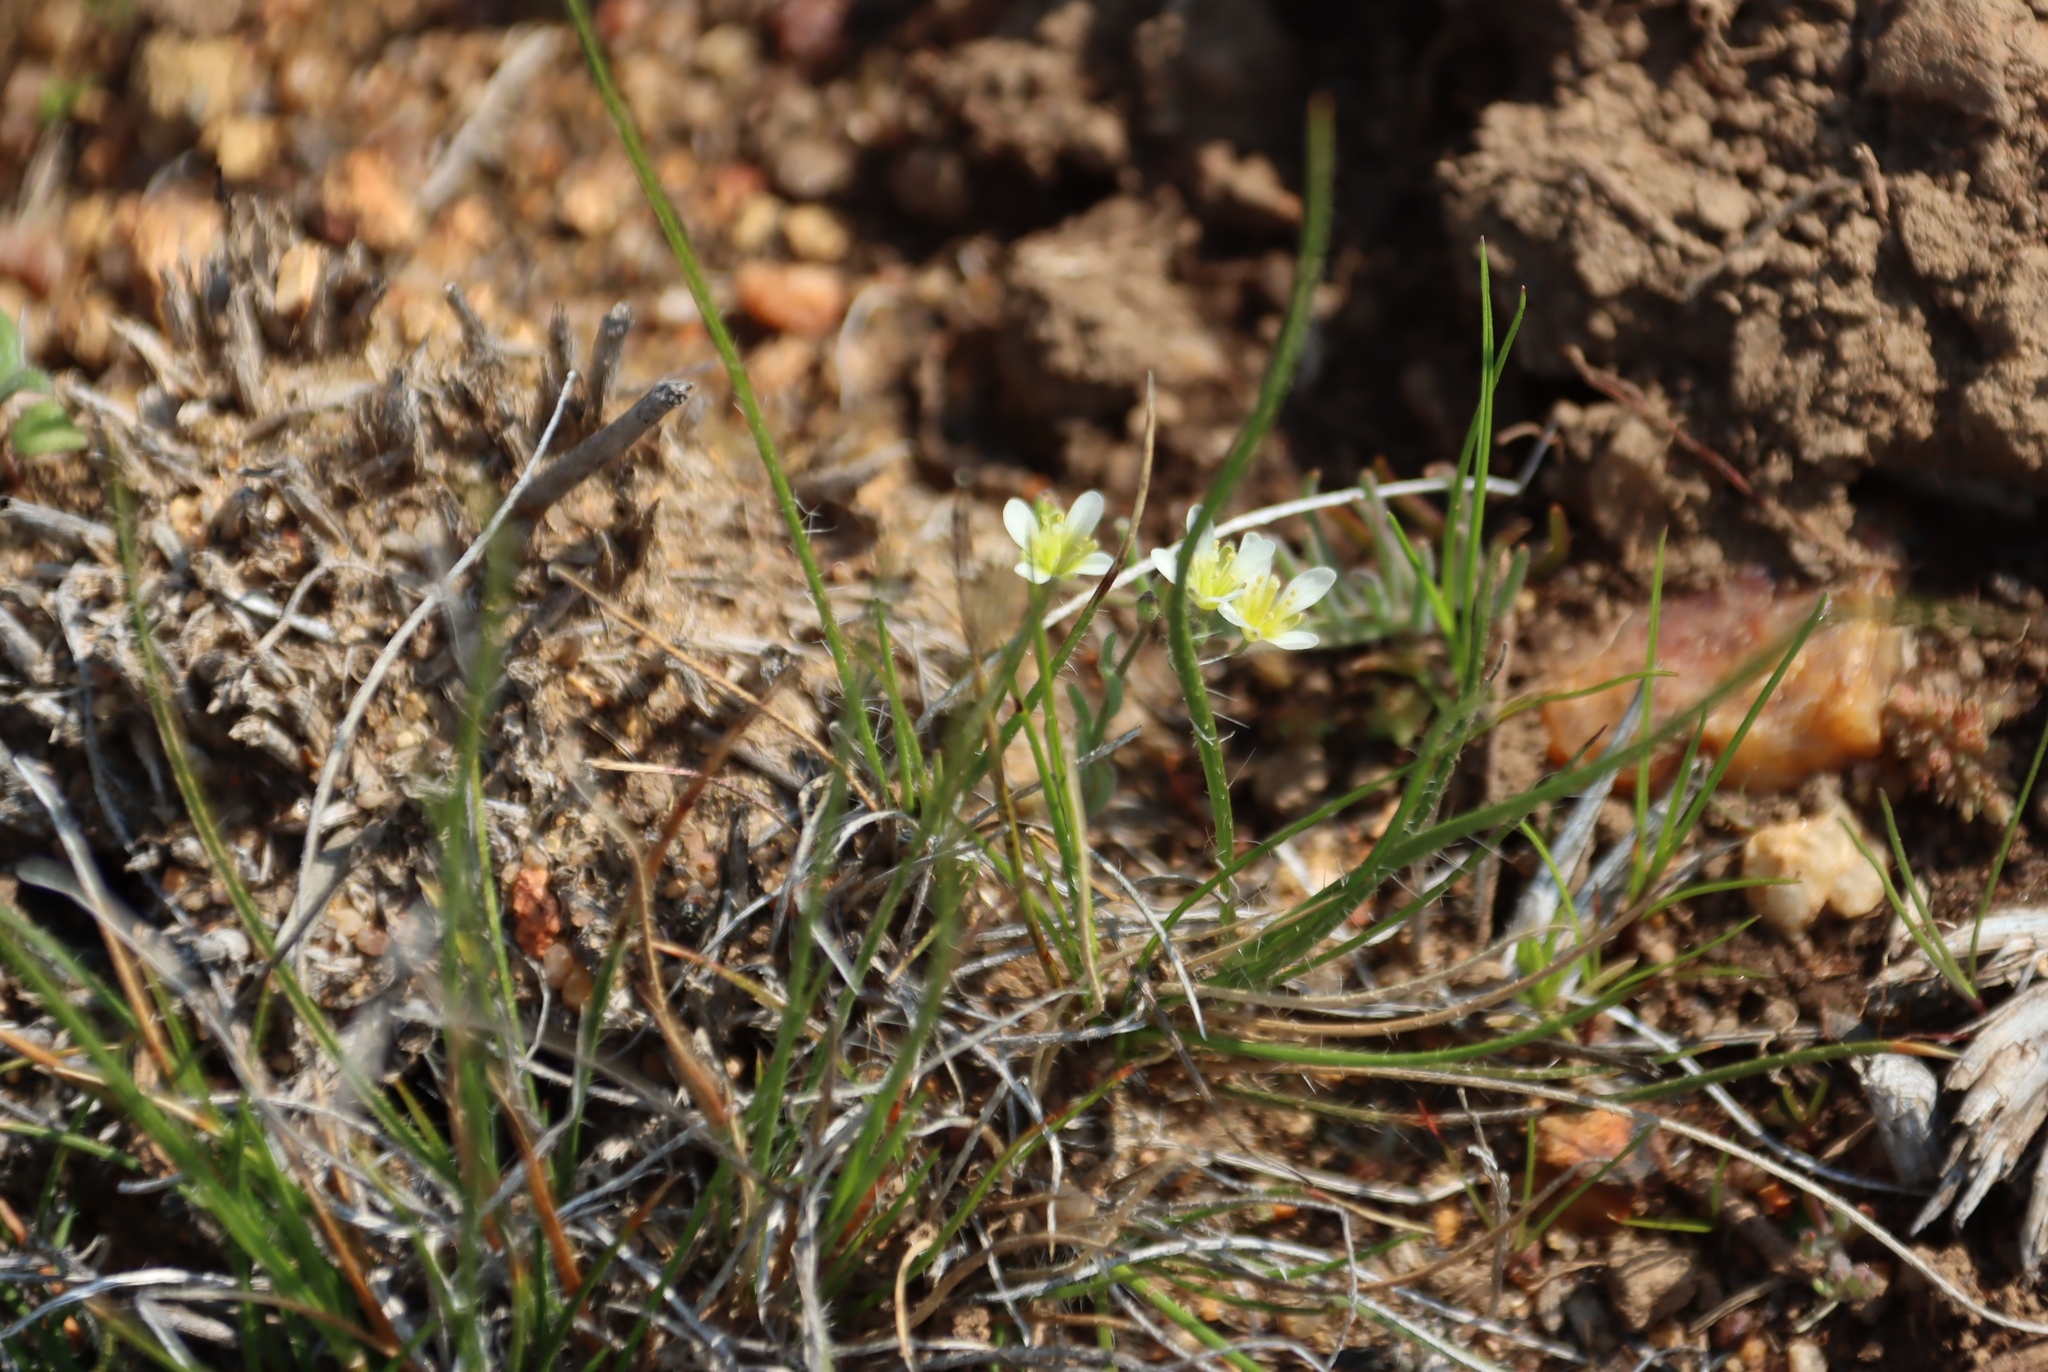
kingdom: Plantae
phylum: Tracheophyta
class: Magnoliopsida
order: Brassicales
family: Brassicaceae
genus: Heliophila
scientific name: Heliophila namaquana
